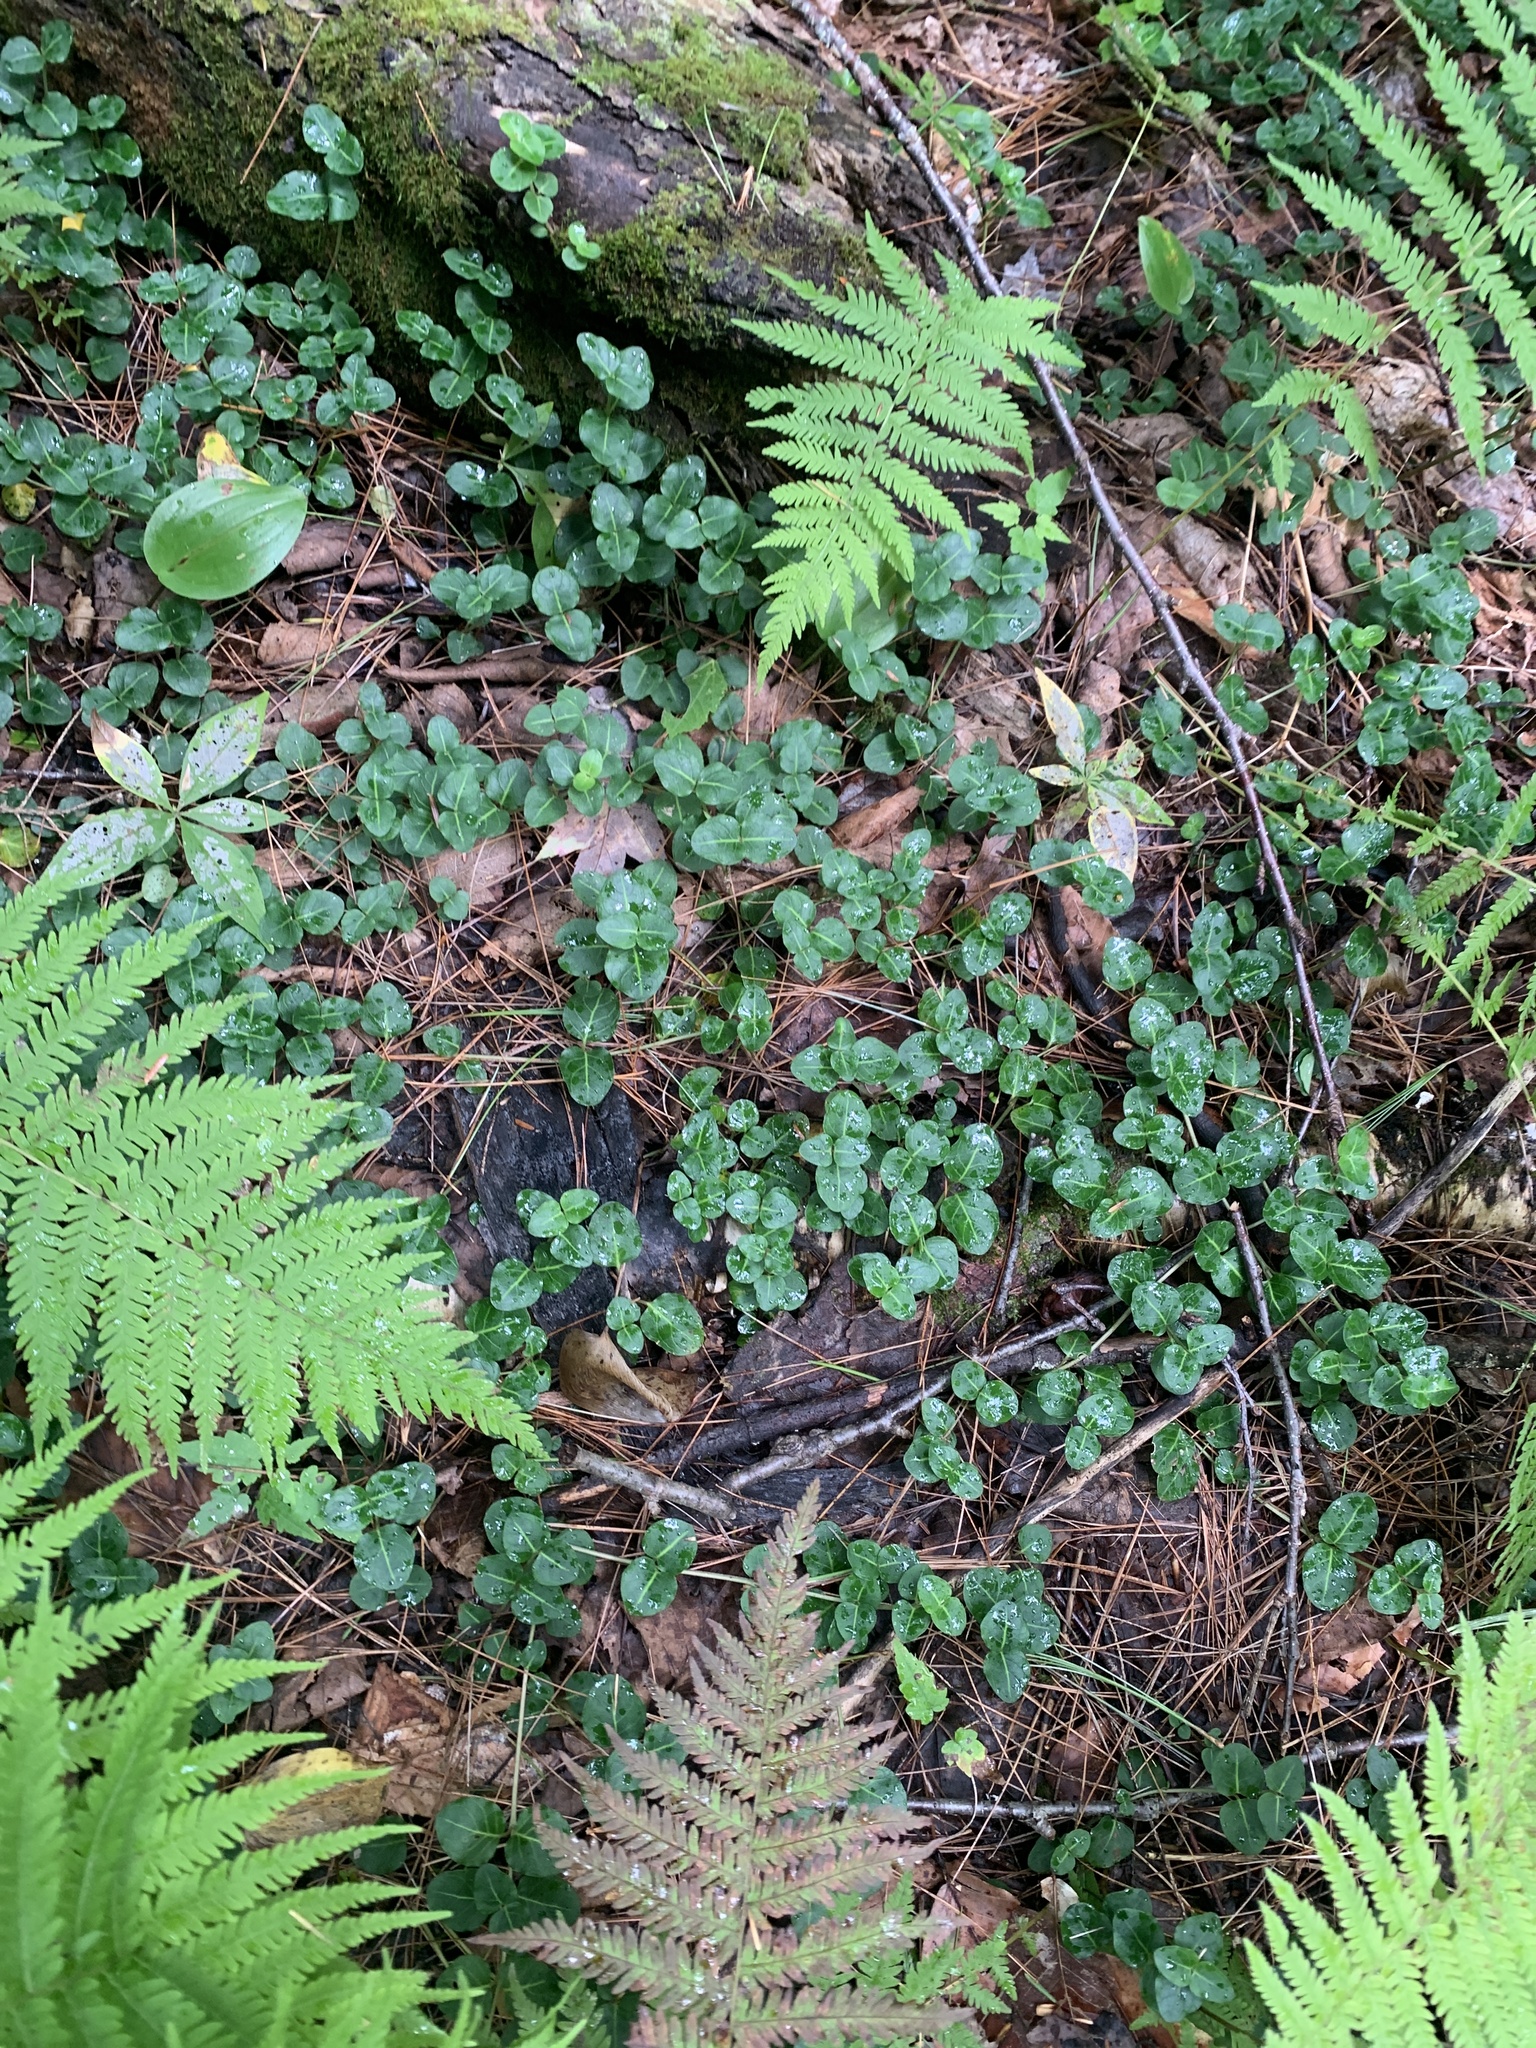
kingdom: Plantae
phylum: Tracheophyta
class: Magnoliopsida
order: Gentianales
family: Rubiaceae
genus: Mitchella
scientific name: Mitchella repens
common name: Partridge-berry
